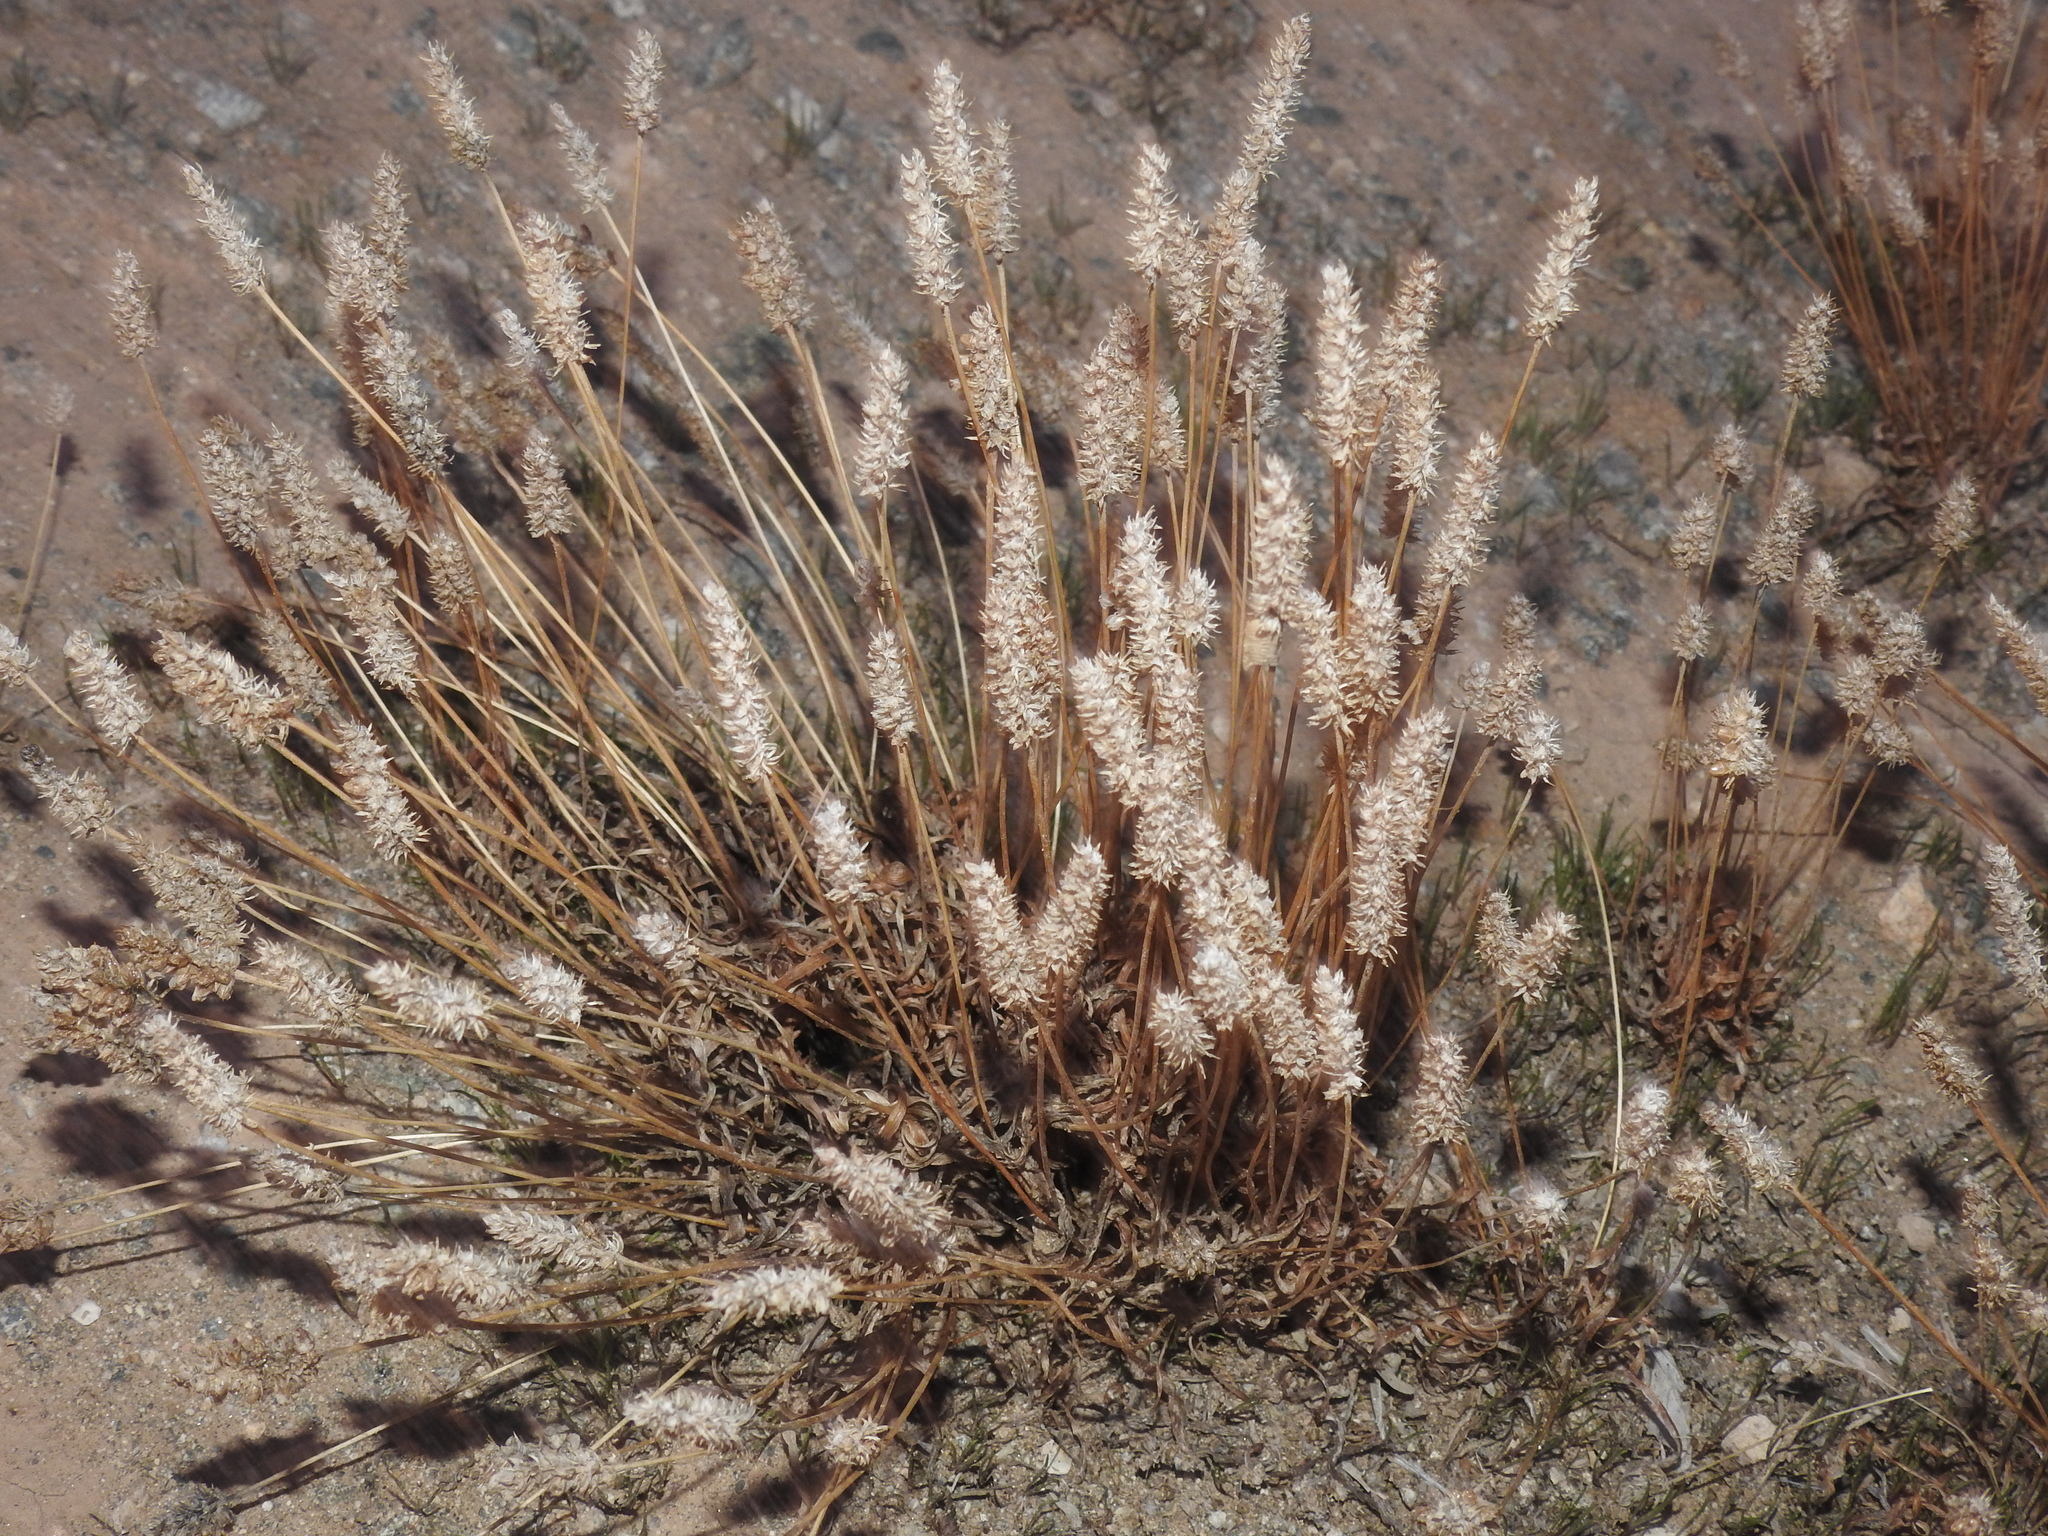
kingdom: Plantae
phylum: Tracheophyta
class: Magnoliopsida
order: Lamiales
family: Plantaginaceae
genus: Plantago
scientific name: Plantago ovata
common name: Blond plantain
